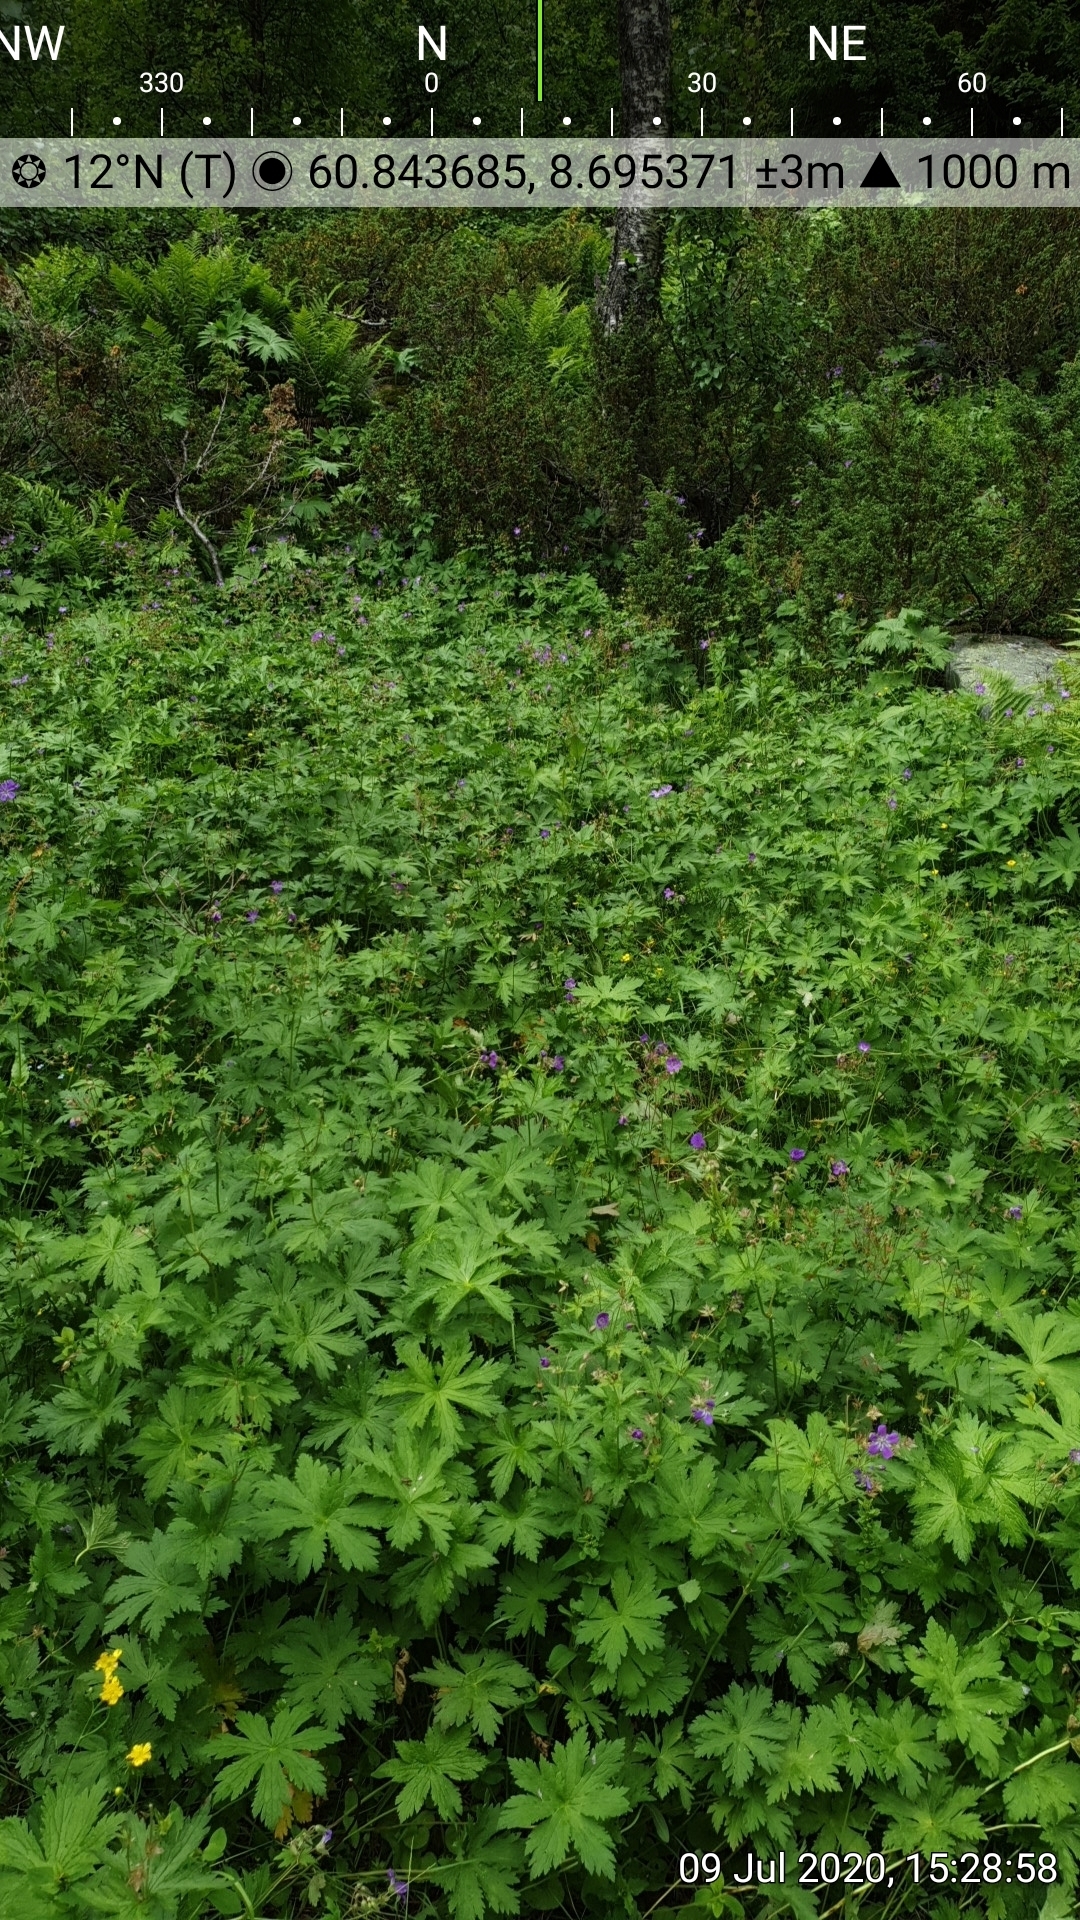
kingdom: Plantae
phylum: Tracheophyta
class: Magnoliopsida
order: Geraniales
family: Geraniaceae
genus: Geranium
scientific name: Geranium sylvaticum
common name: Wood crane's-bill
